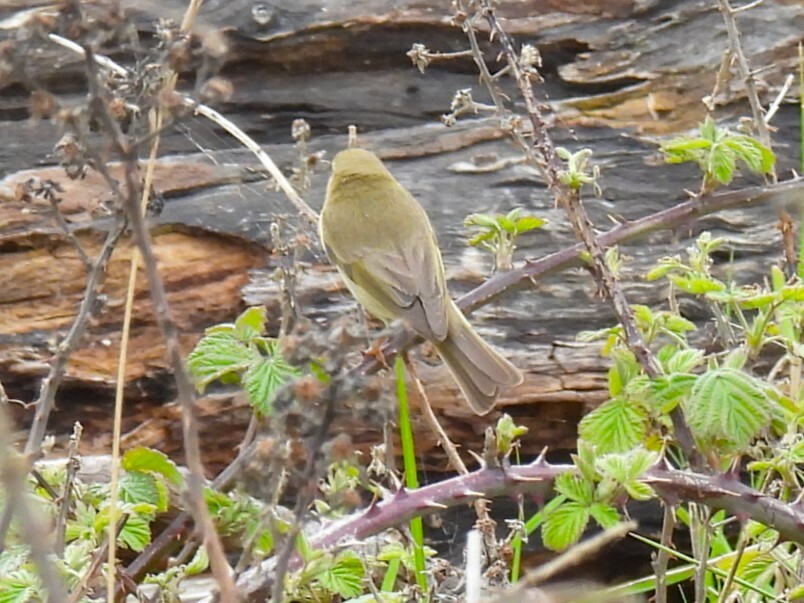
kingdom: Animalia
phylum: Chordata
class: Aves
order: Passeriformes
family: Phylloscopidae
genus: Phylloscopus
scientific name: Phylloscopus trochilus
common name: Willow warbler
